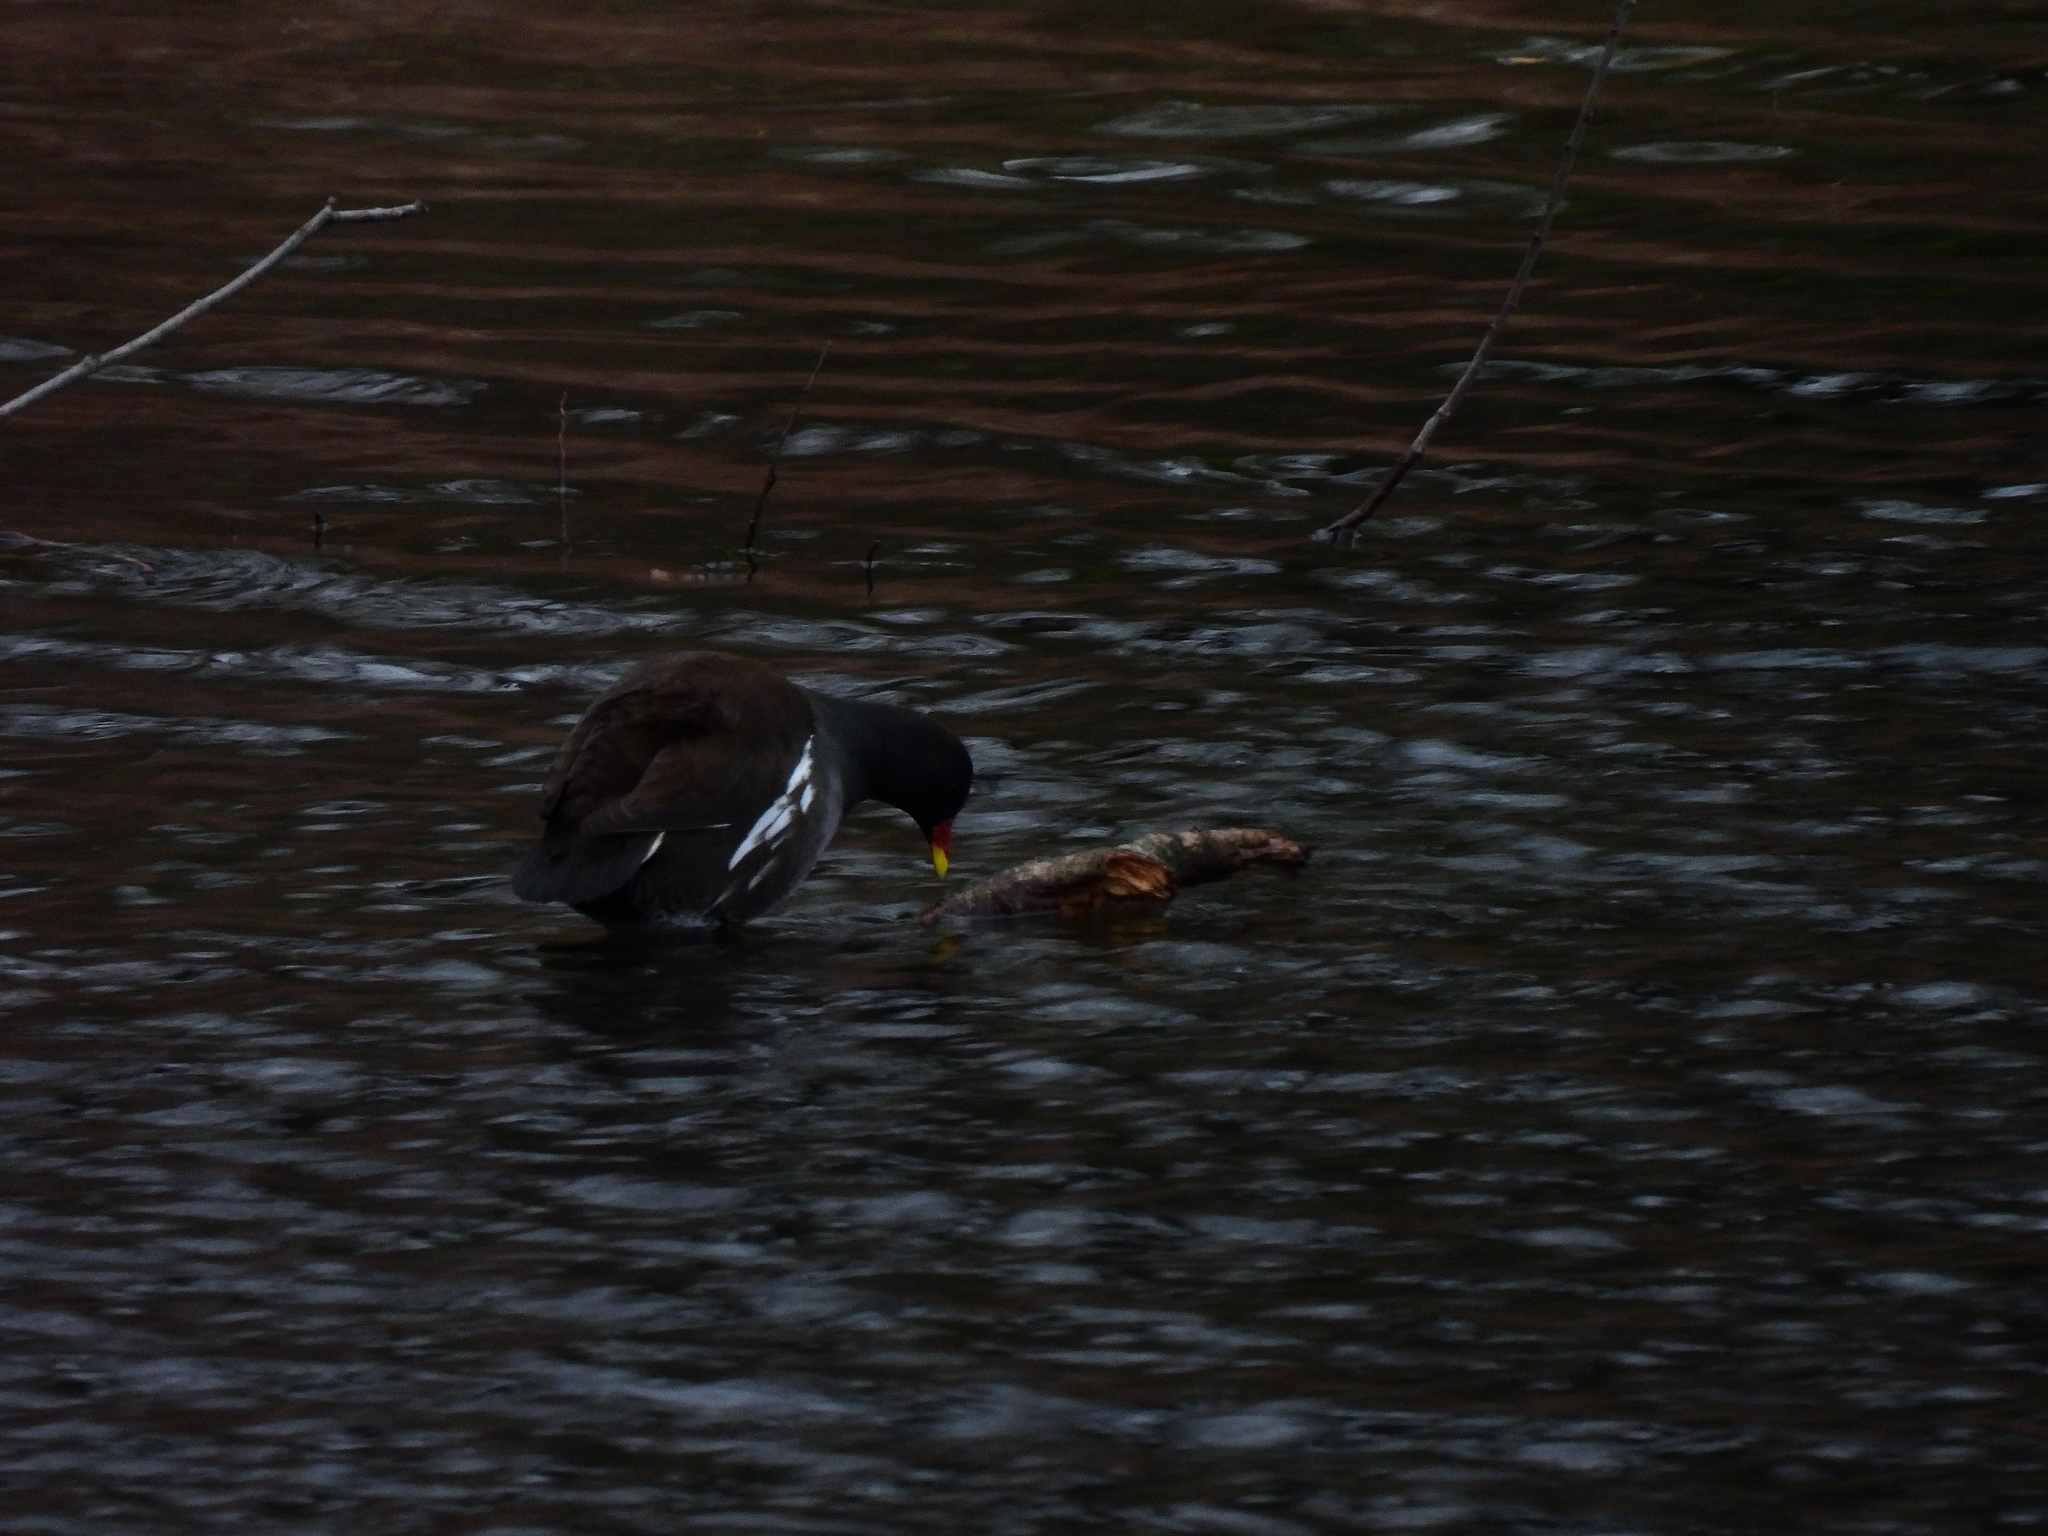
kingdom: Animalia
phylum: Chordata
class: Aves
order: Gruiformes
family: Rallidae
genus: Gallinula
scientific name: Gallinula chloropus
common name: Common moorhen
